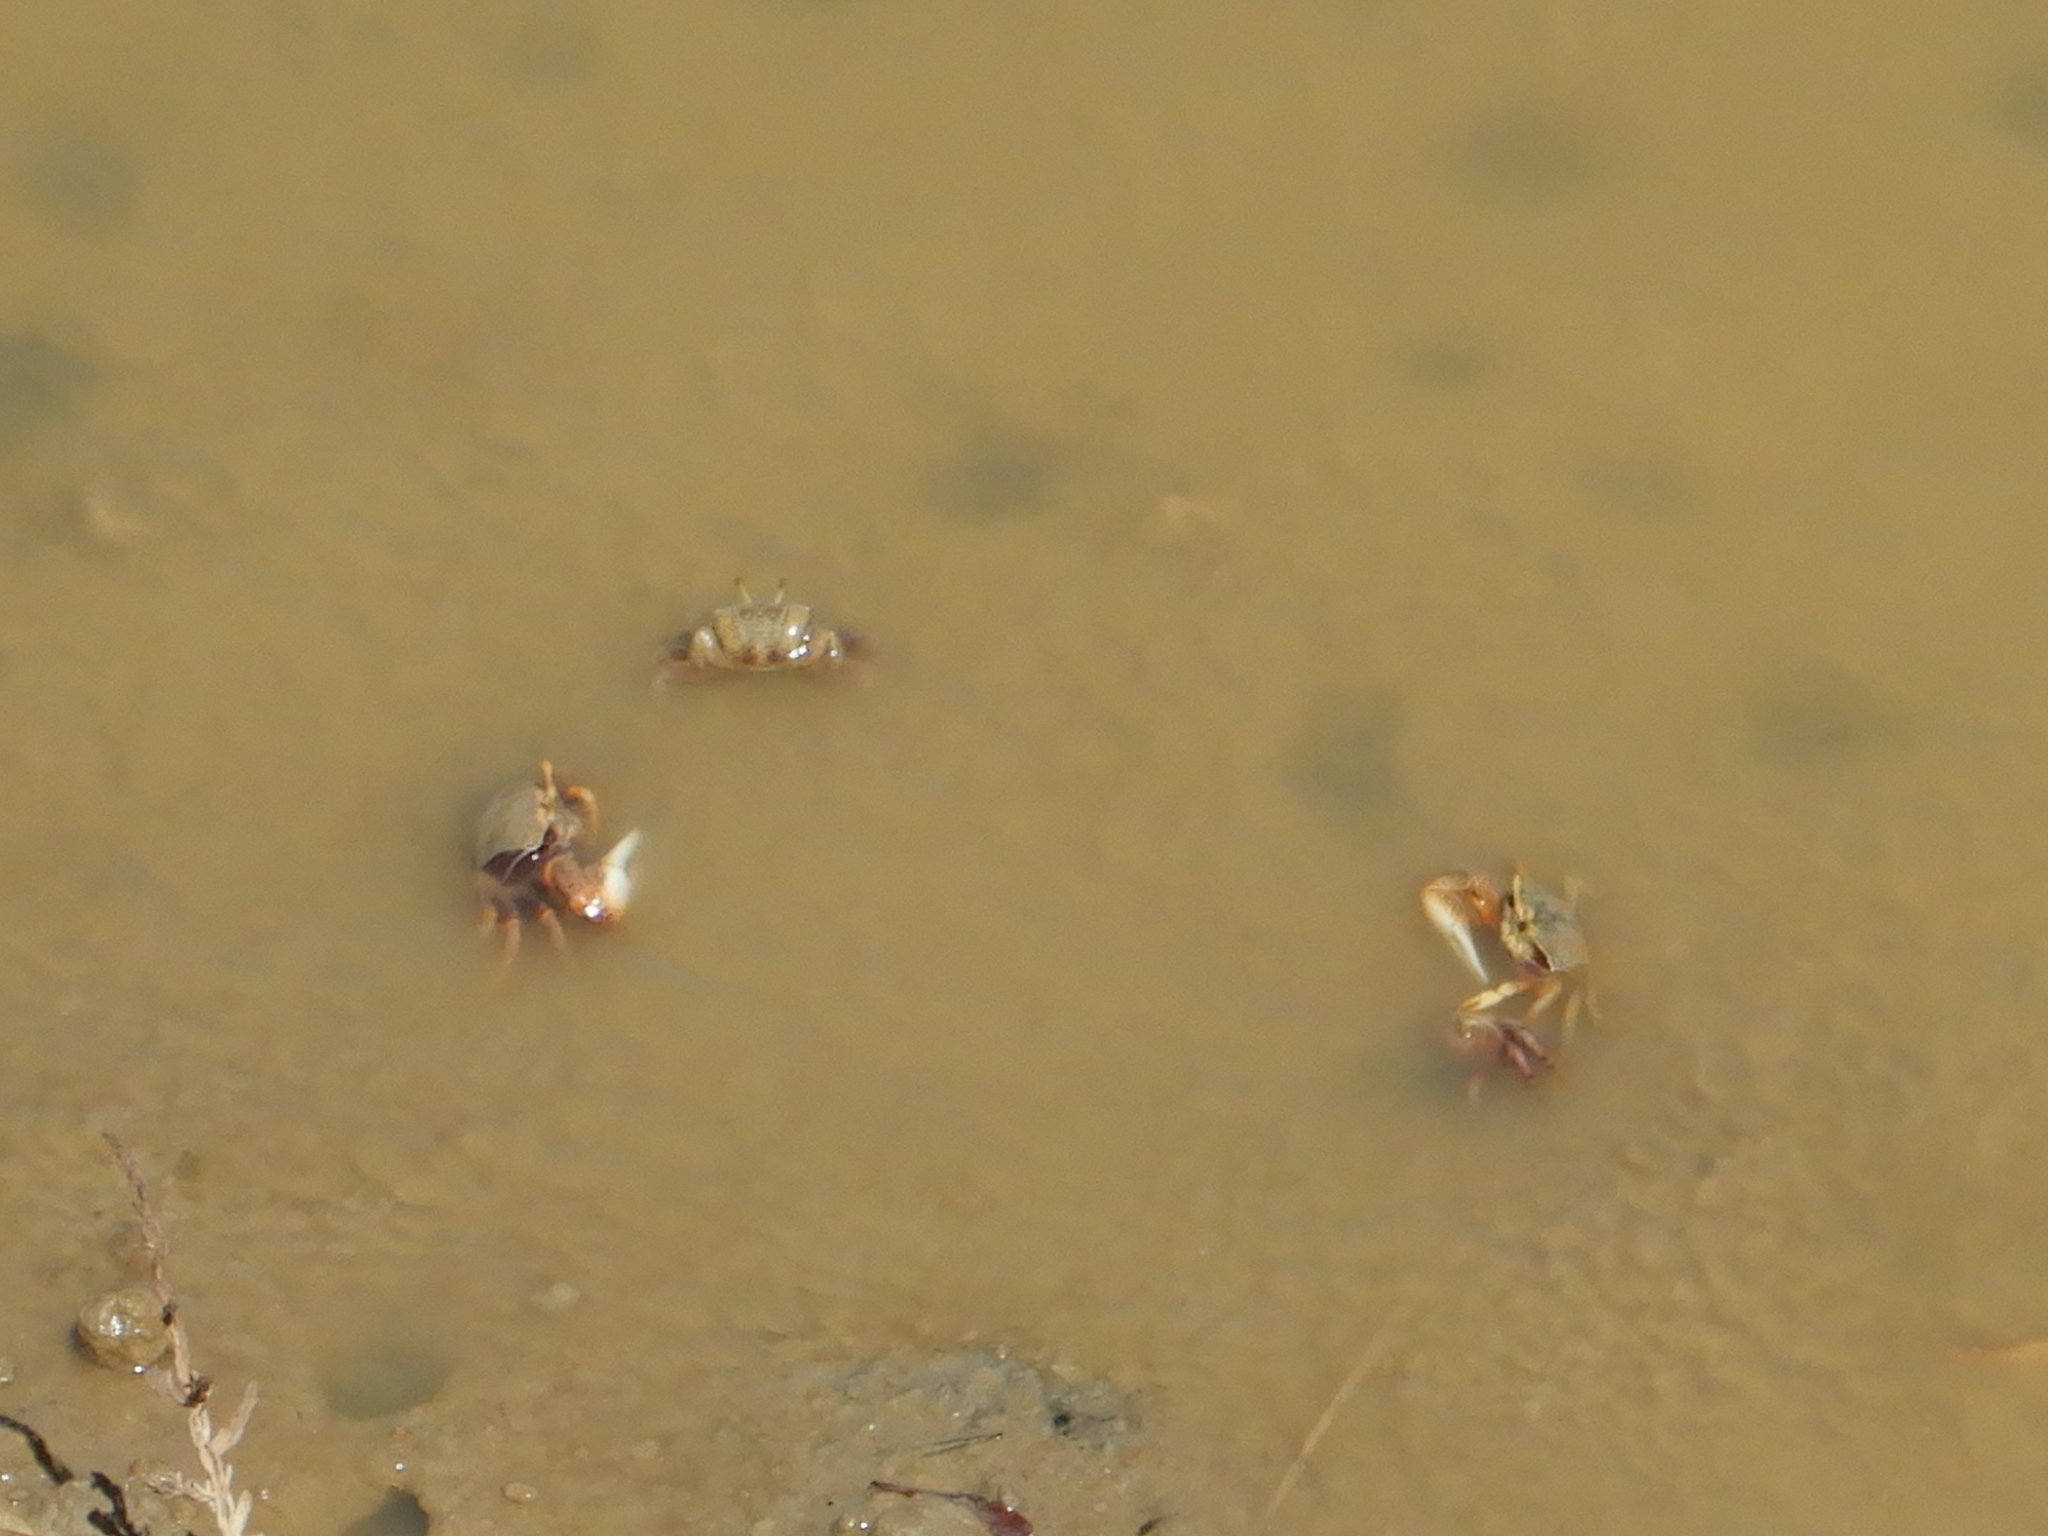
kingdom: Animalia
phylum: Arthropoda
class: Malacostraca
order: Decapoda
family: Ocypodidae
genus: Afruca
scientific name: Afruca tangeri
